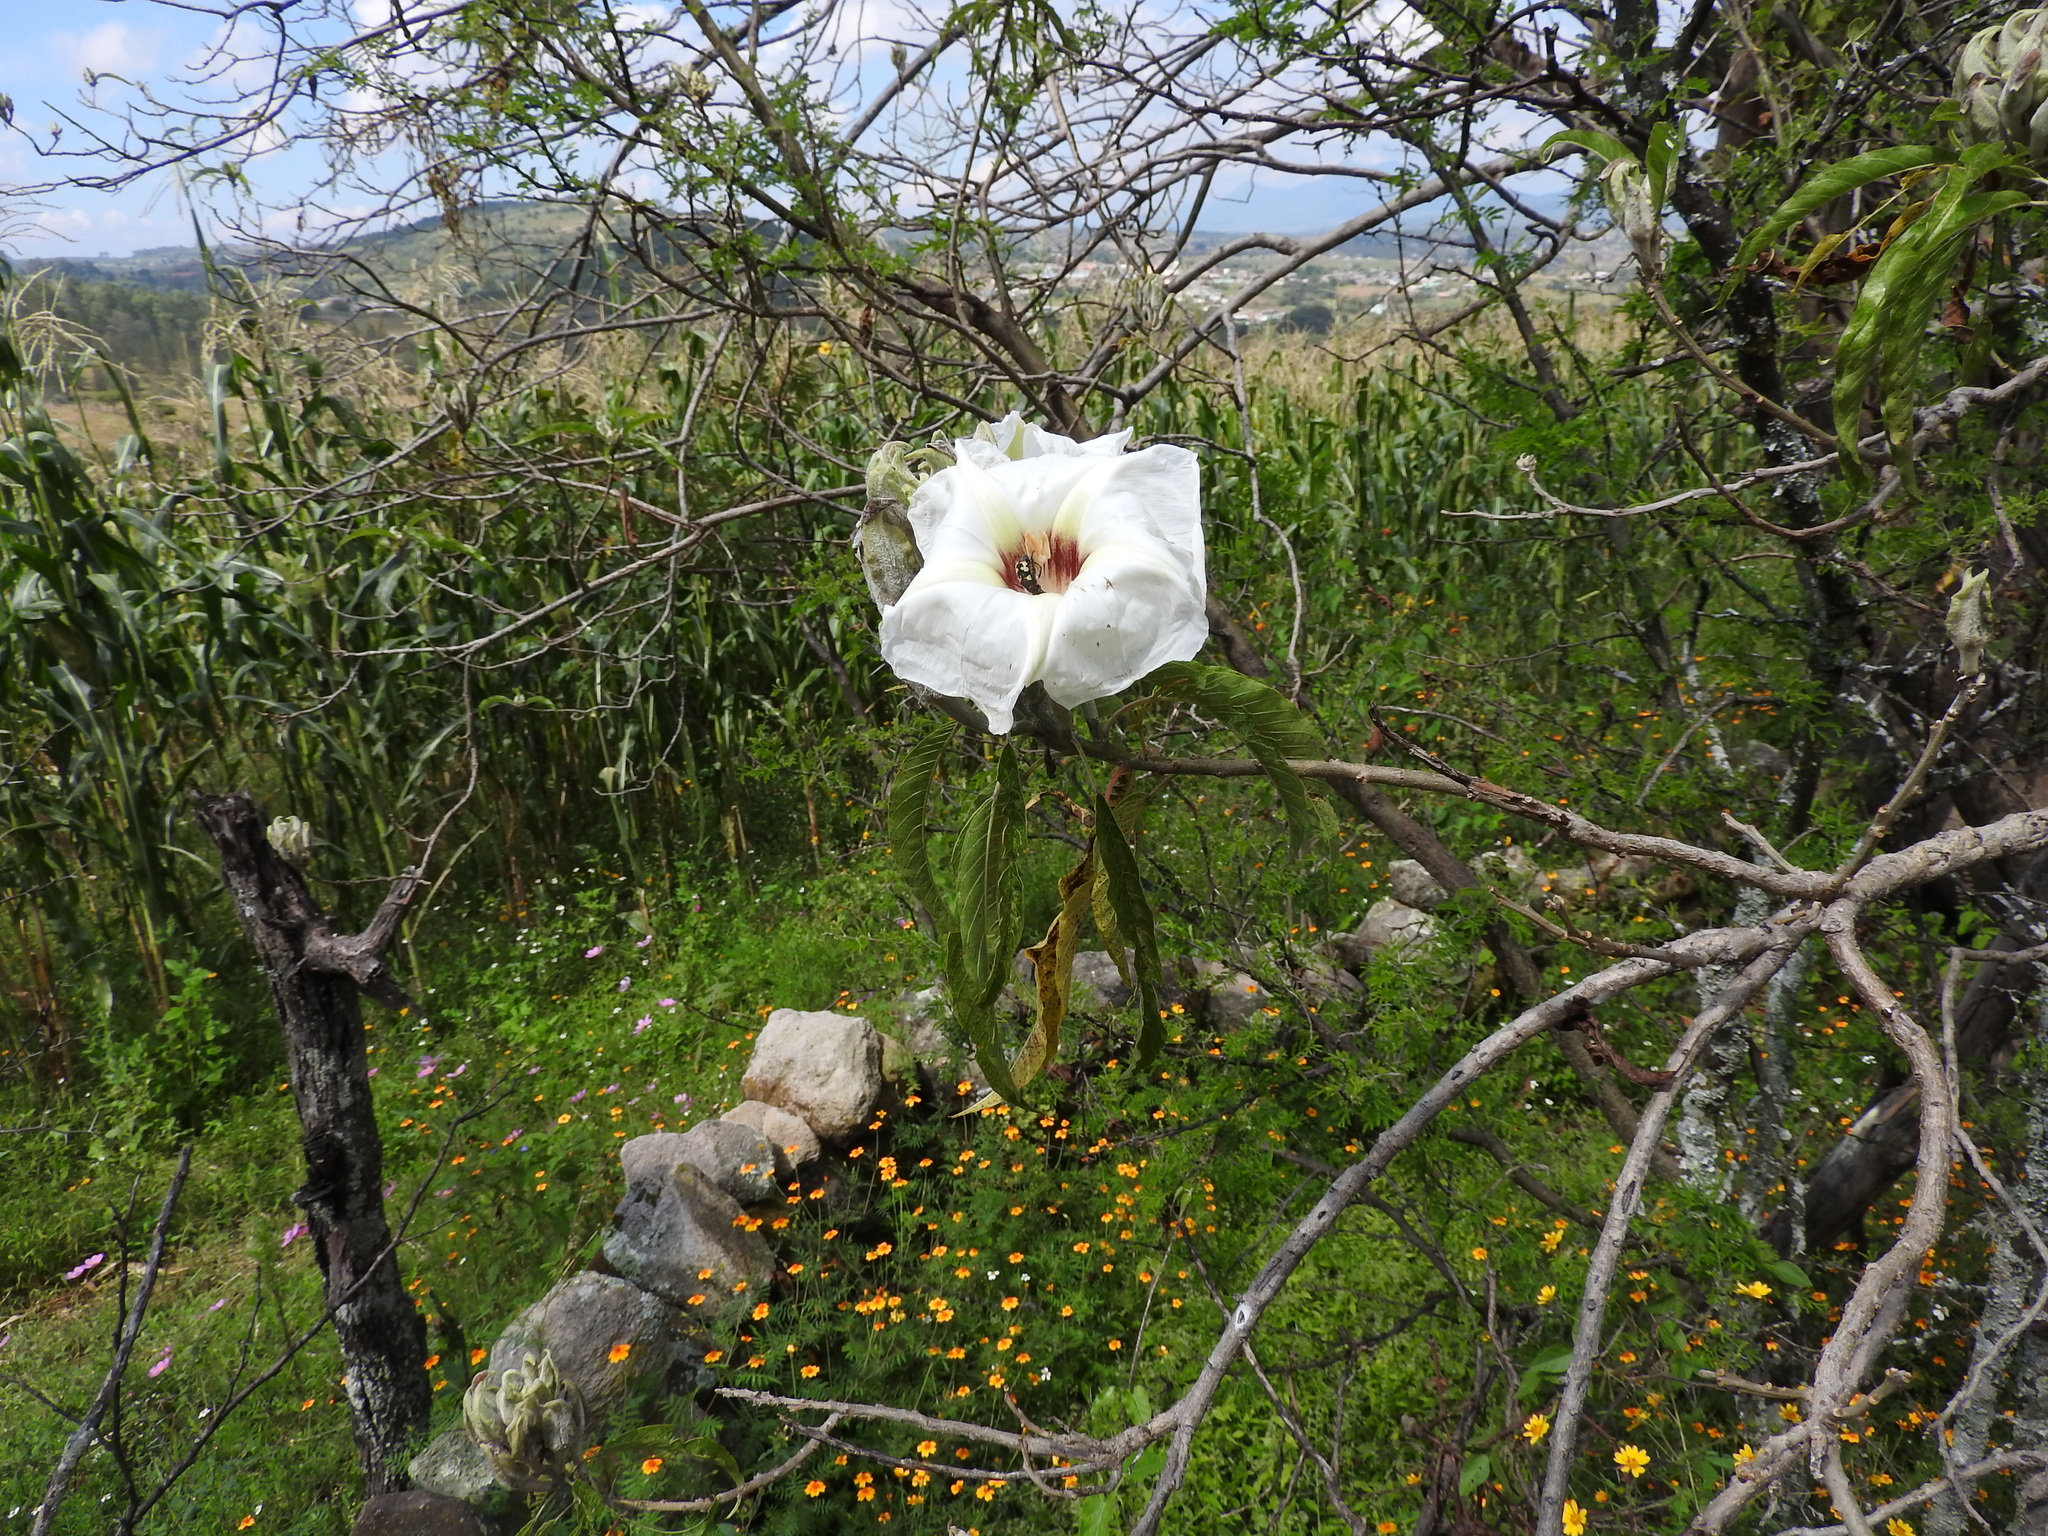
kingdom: Plantae
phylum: Tracheophyta
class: Magnoliopsida
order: Solanales
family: Convolvulaceae
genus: Ipomoea
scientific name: Ipomoea murucoides
